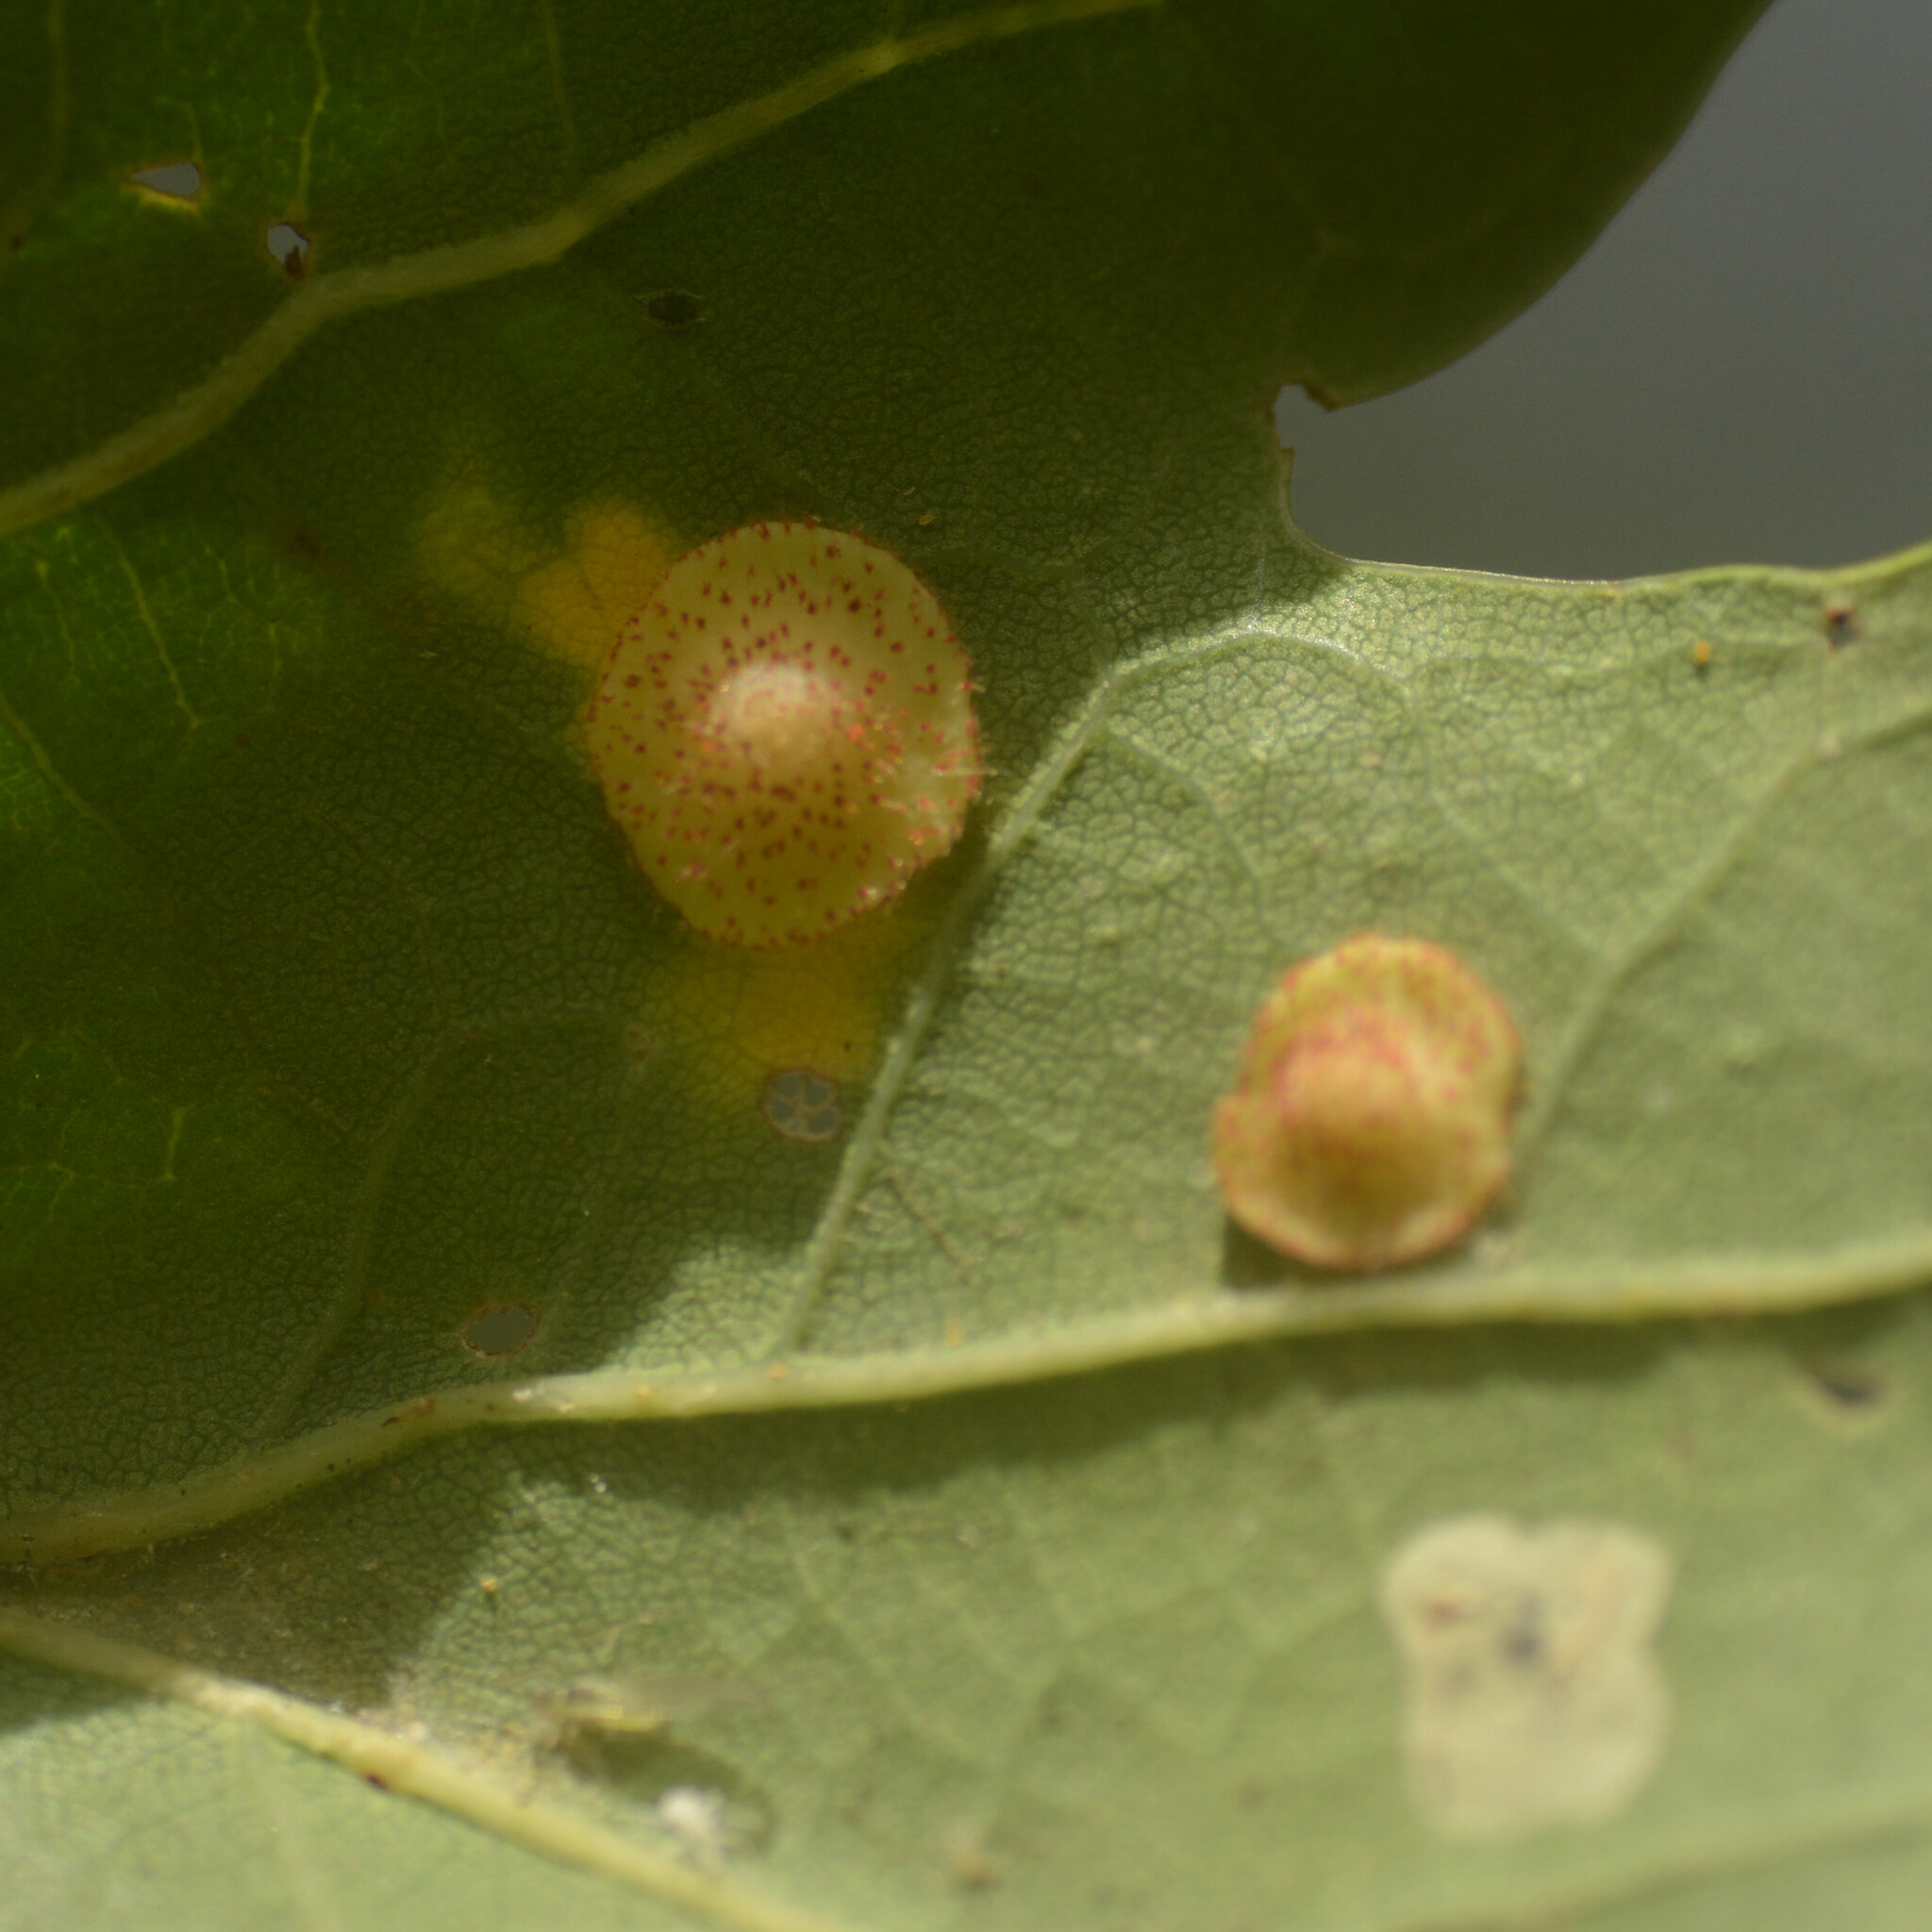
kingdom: Animalia
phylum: Arthropoda
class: Insecta
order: Hymenoptera
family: Cynipidae
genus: Neuroterus
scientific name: Neuroterus quercusbaccarum
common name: Common spangle gall
